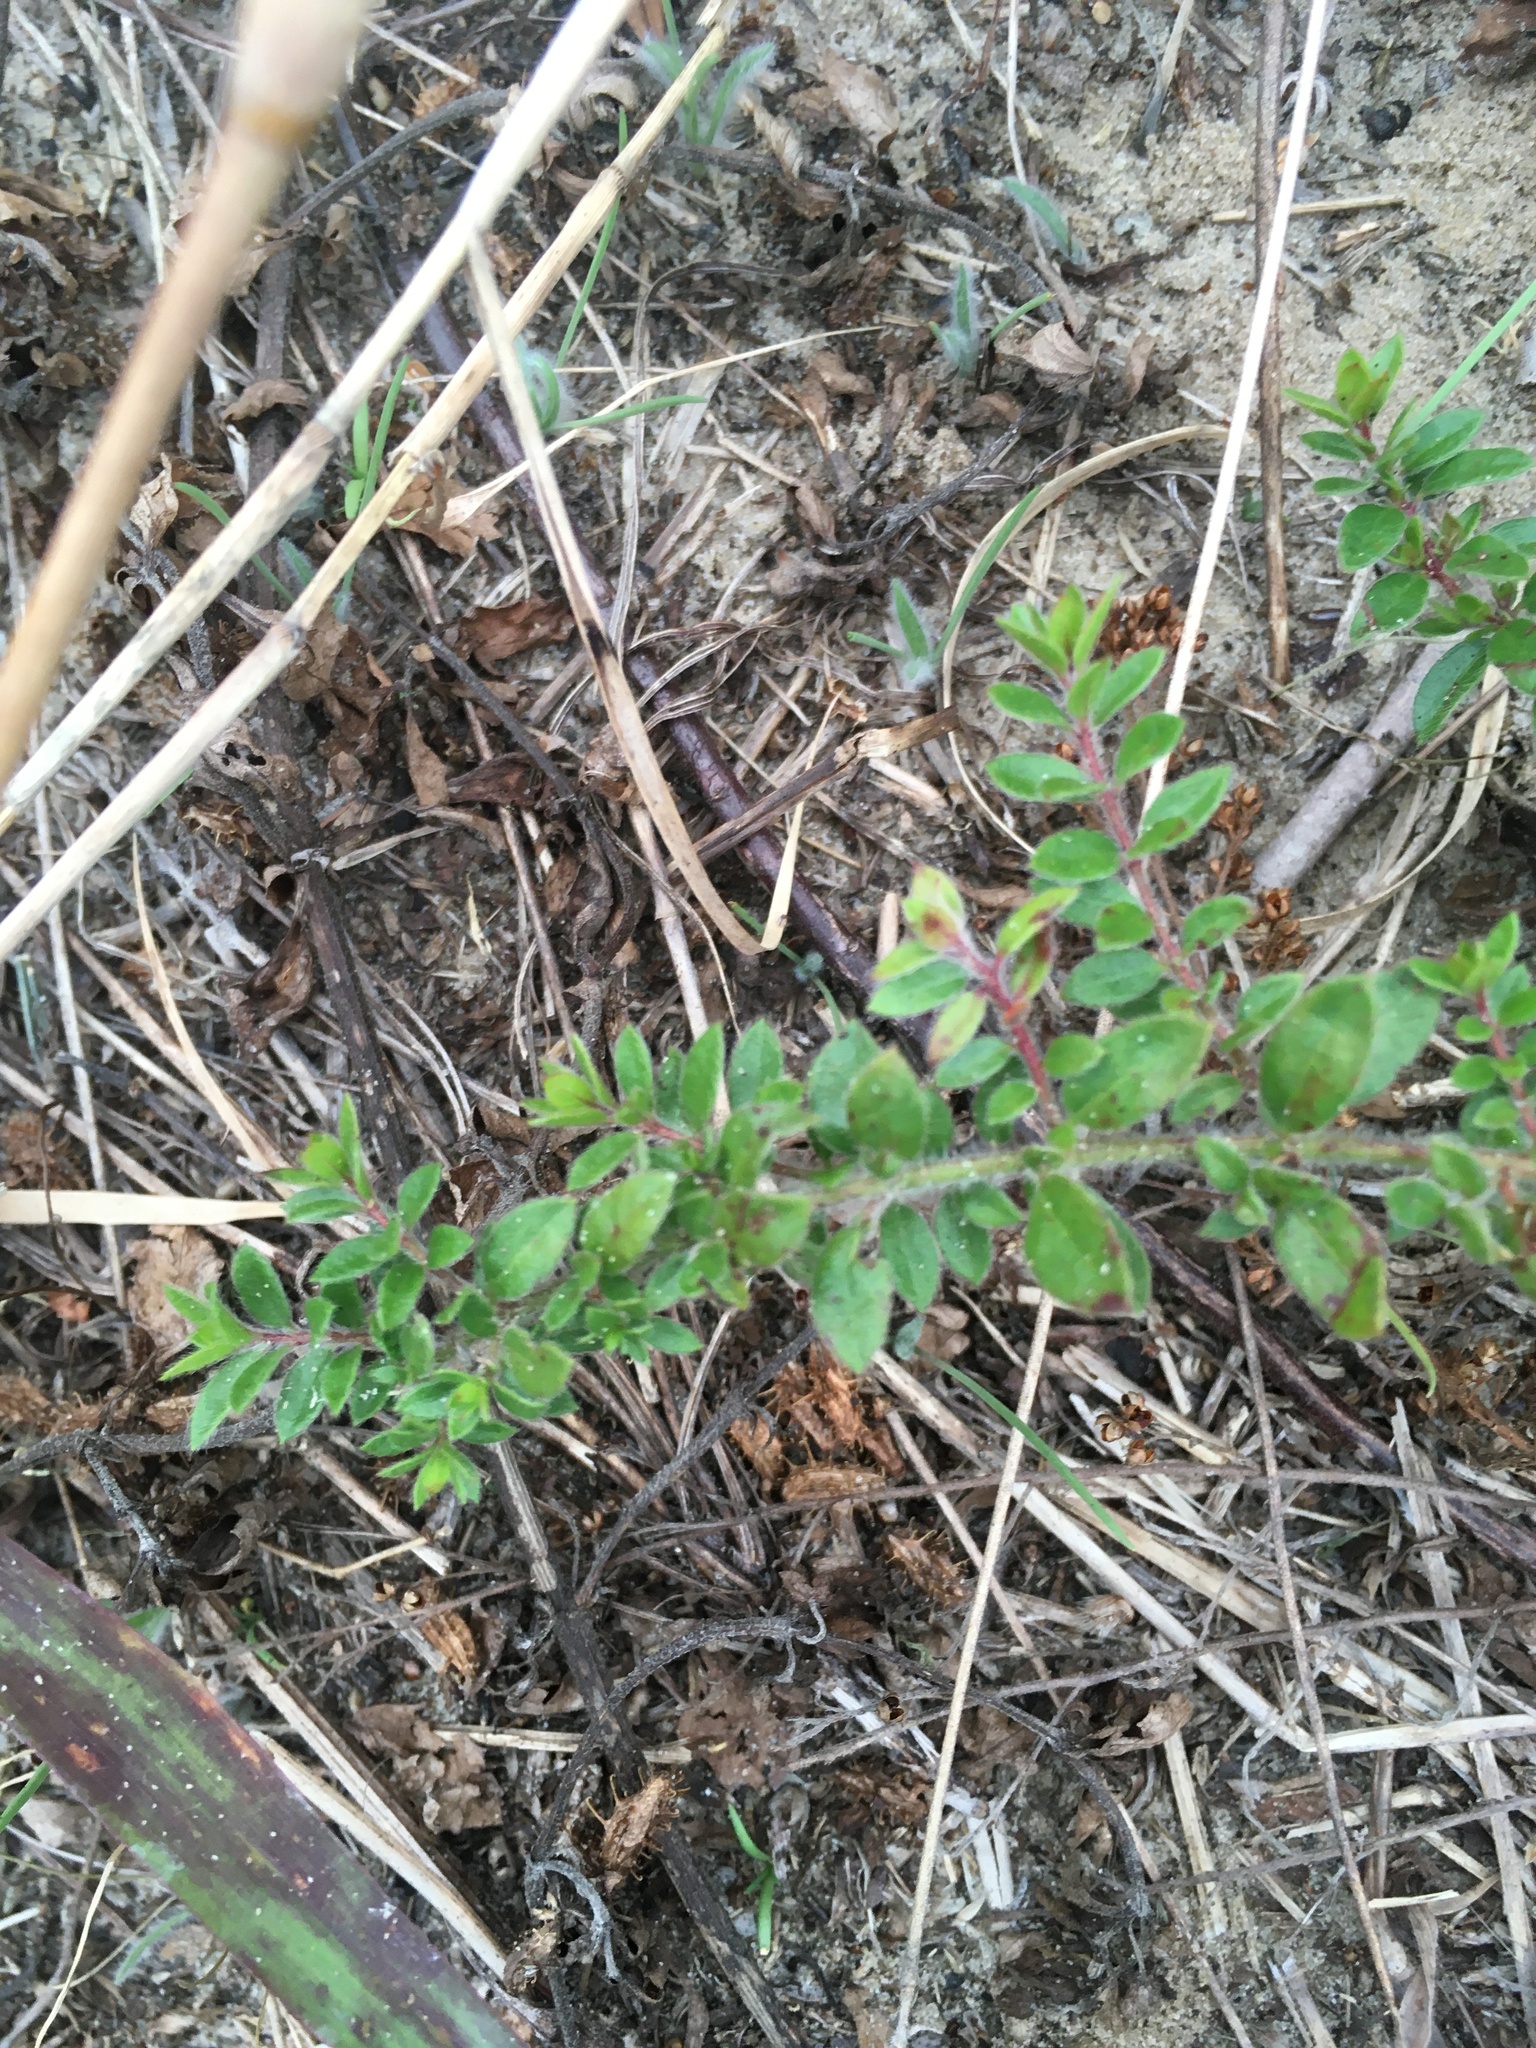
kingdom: Plantae
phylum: Tracheophyta
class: Magnoliopsida
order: Malvales
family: Cistaceae
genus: Lechea
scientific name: Lechea mucronata
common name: Hairy pinweed
